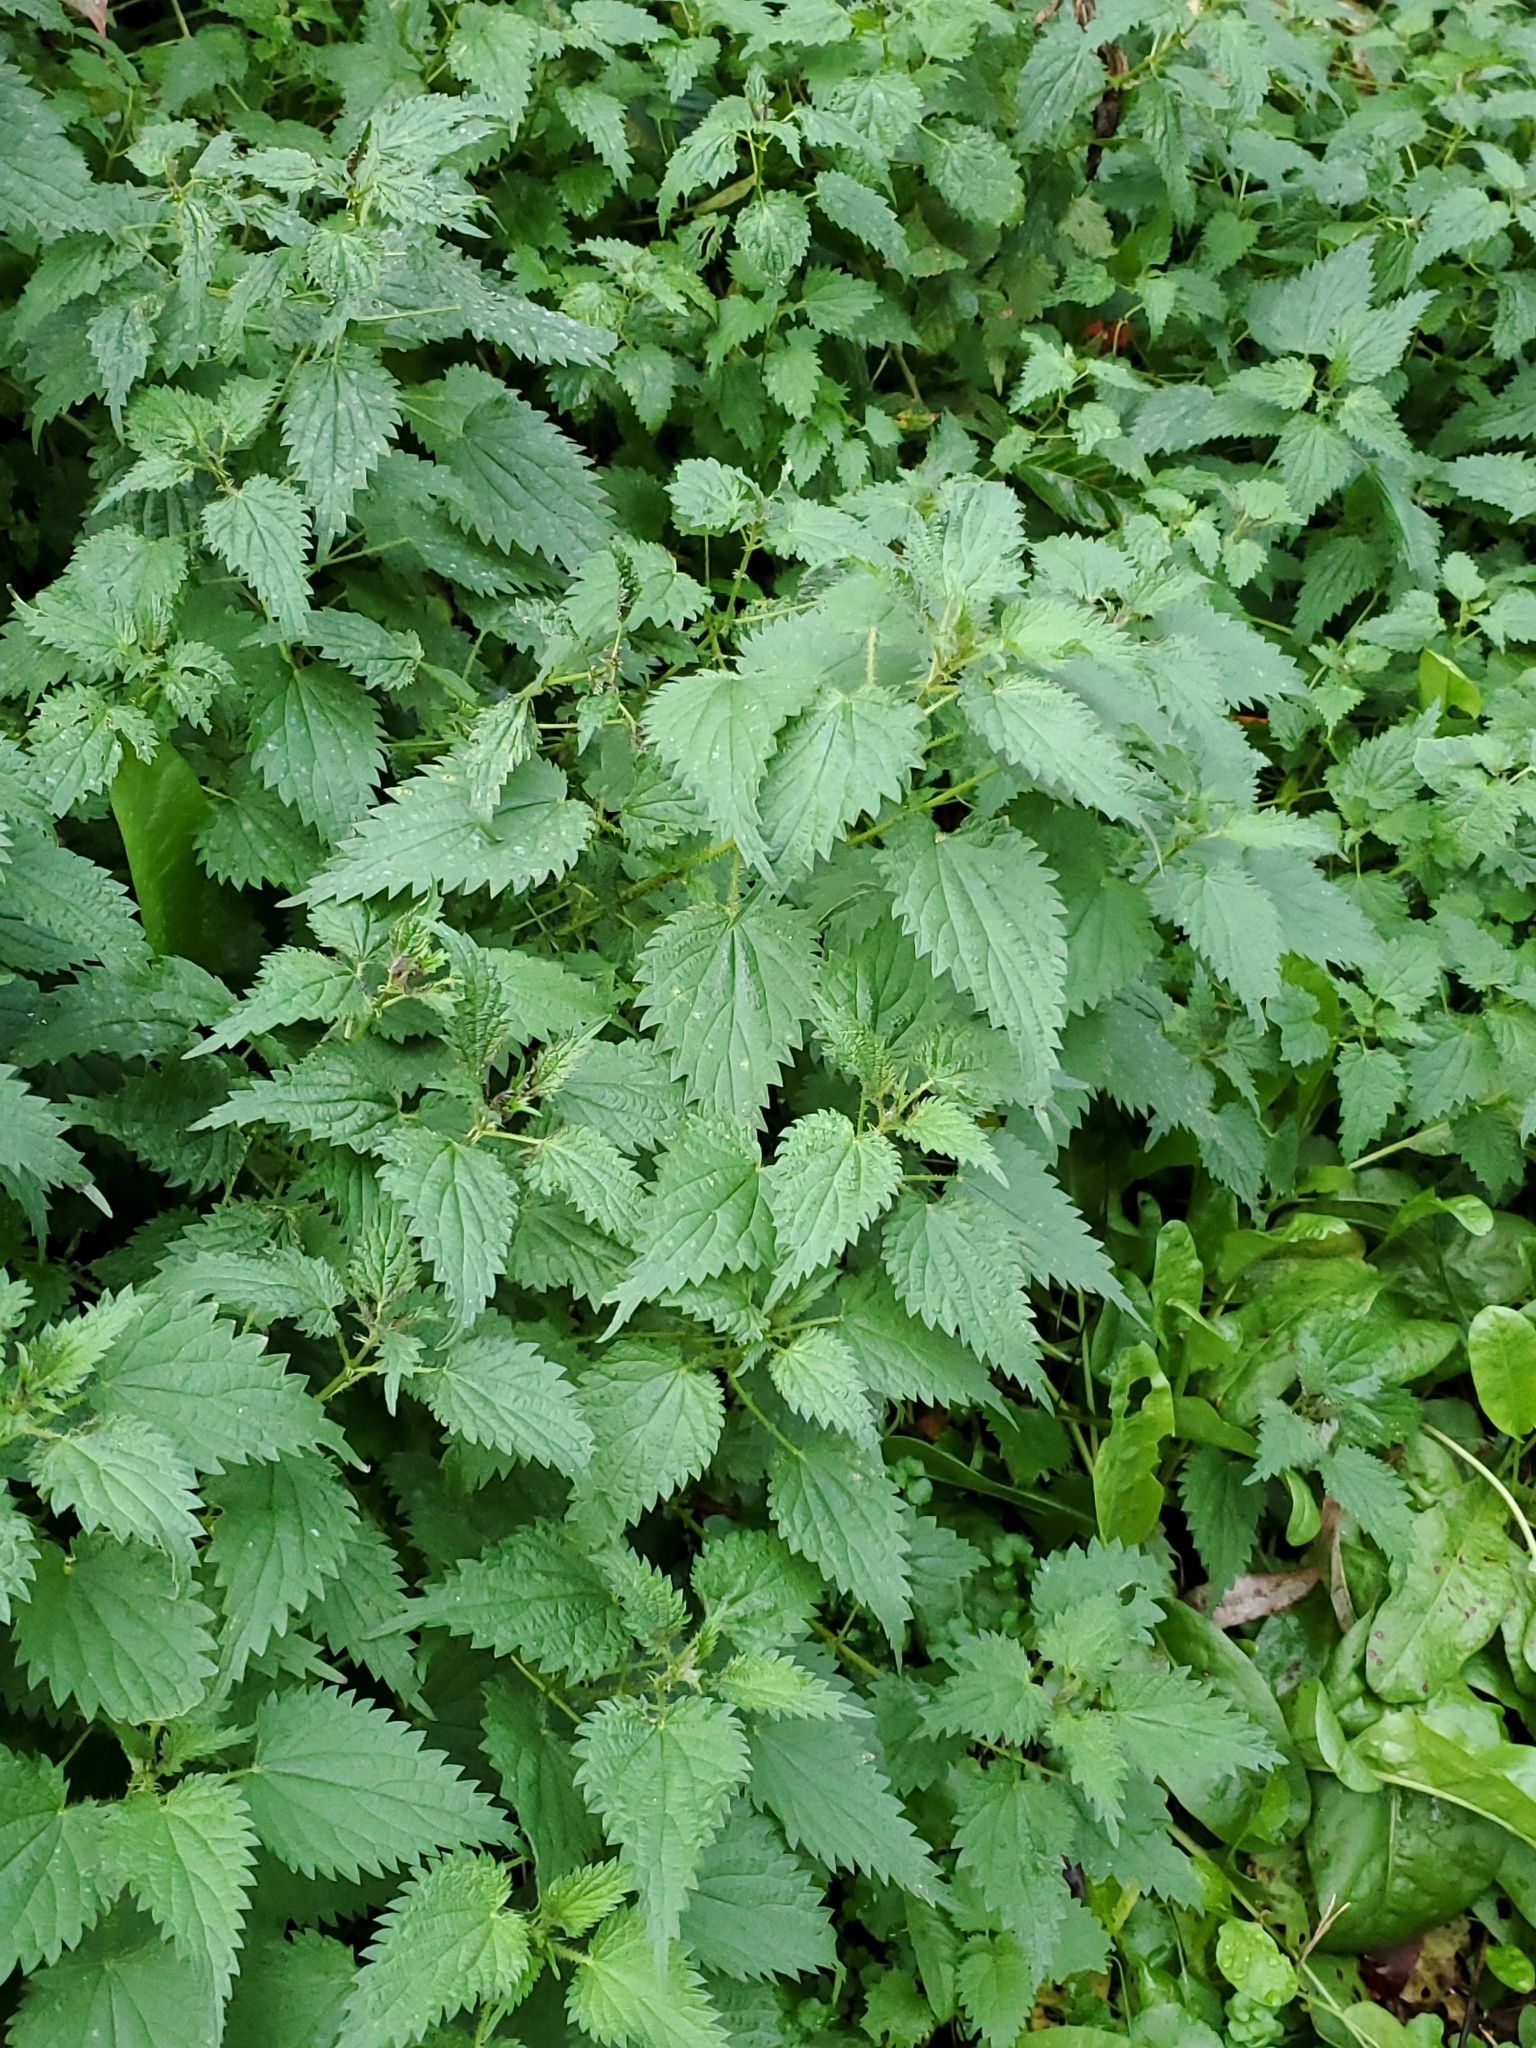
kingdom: Plantae
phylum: Tracheophyta
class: Magnoliopsida
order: Rosales
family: Urticaceae
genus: Urtica
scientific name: Urtica dioica
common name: Common nettle
